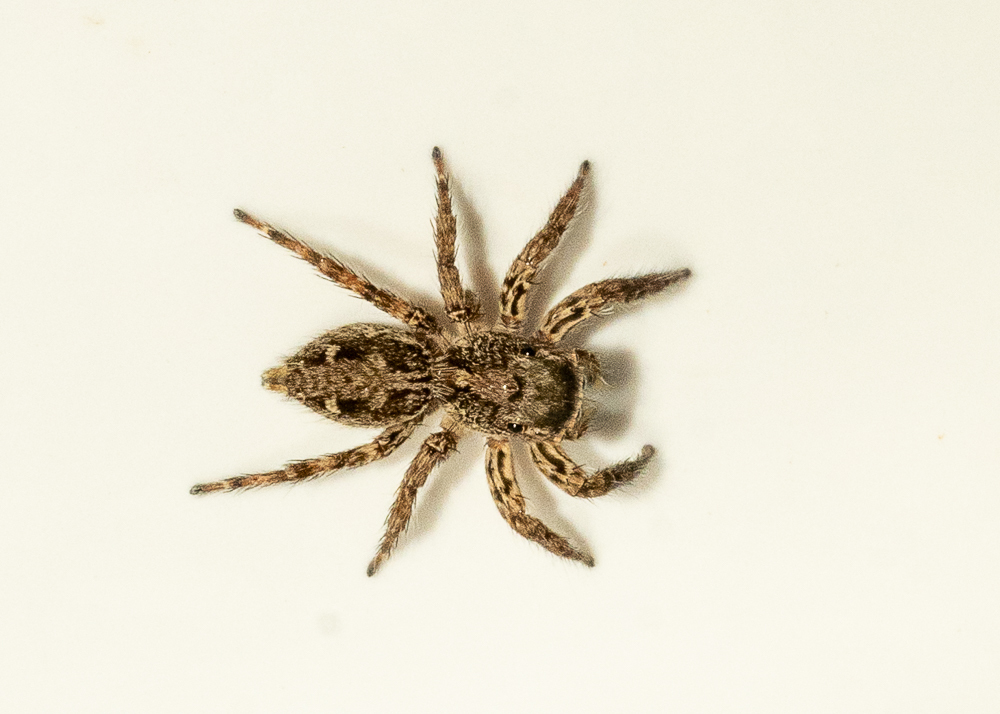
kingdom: Animalia
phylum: Arthropoda
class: Arachnida
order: Araneae
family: Salticidae
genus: Plexippus
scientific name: Plexippus petersi
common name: Jumping spider
